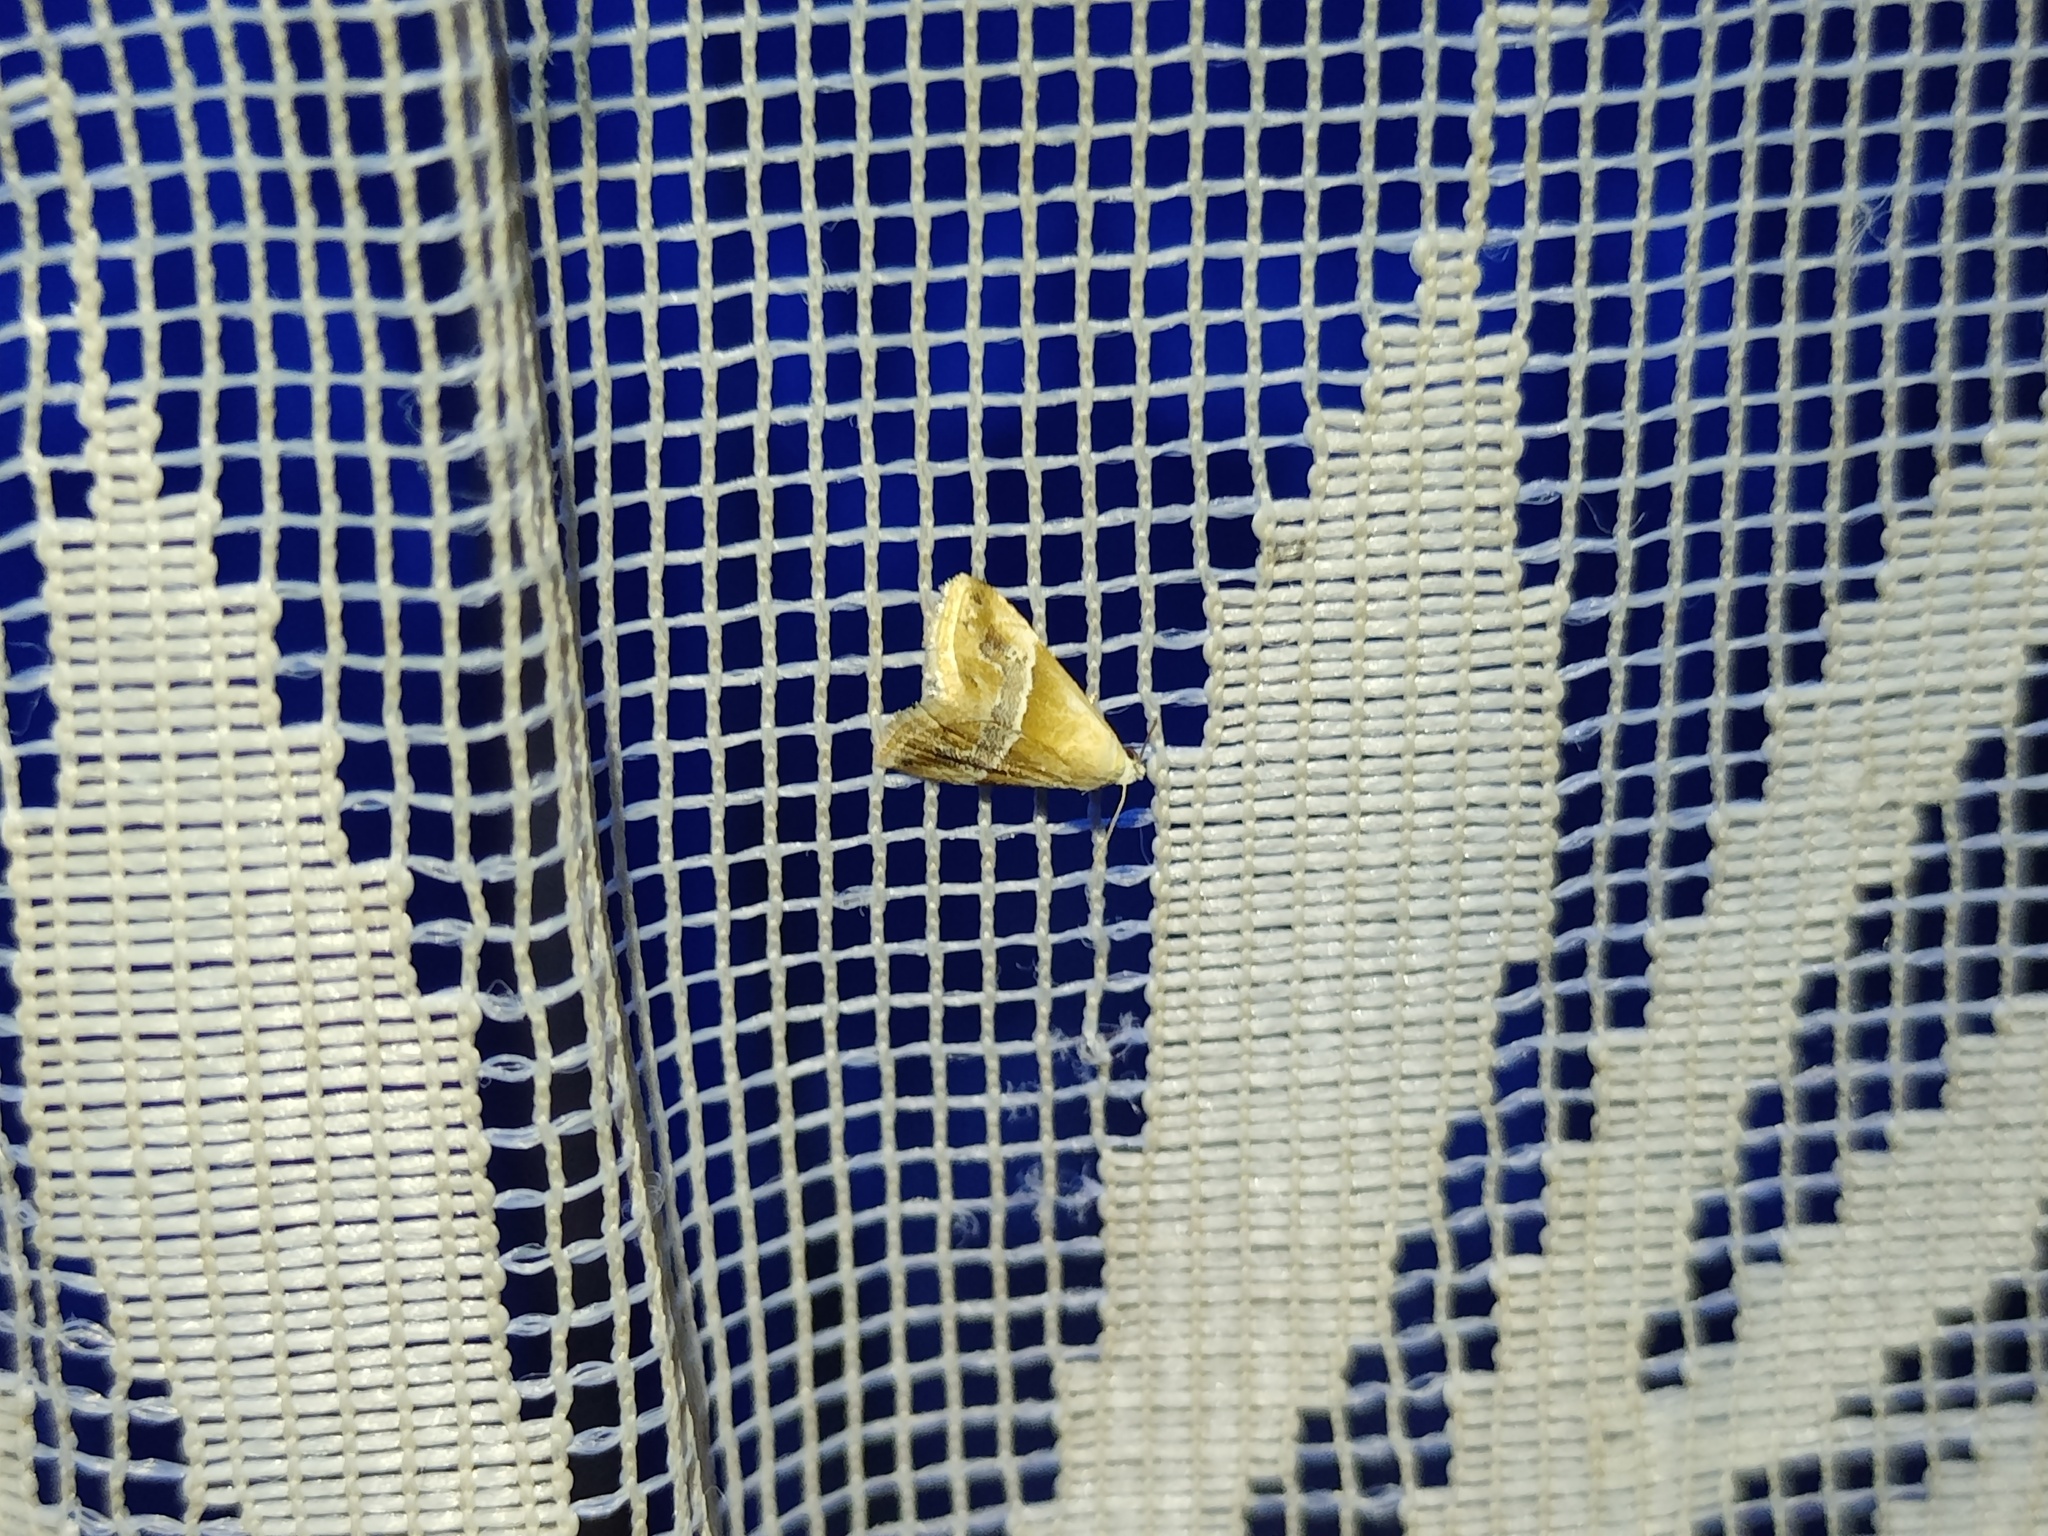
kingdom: Animalia
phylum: Arthropoda
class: Insecta
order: Lepidoptera
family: Noctuidae
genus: Eublemma
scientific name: Eublemma parva
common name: Small marbled
